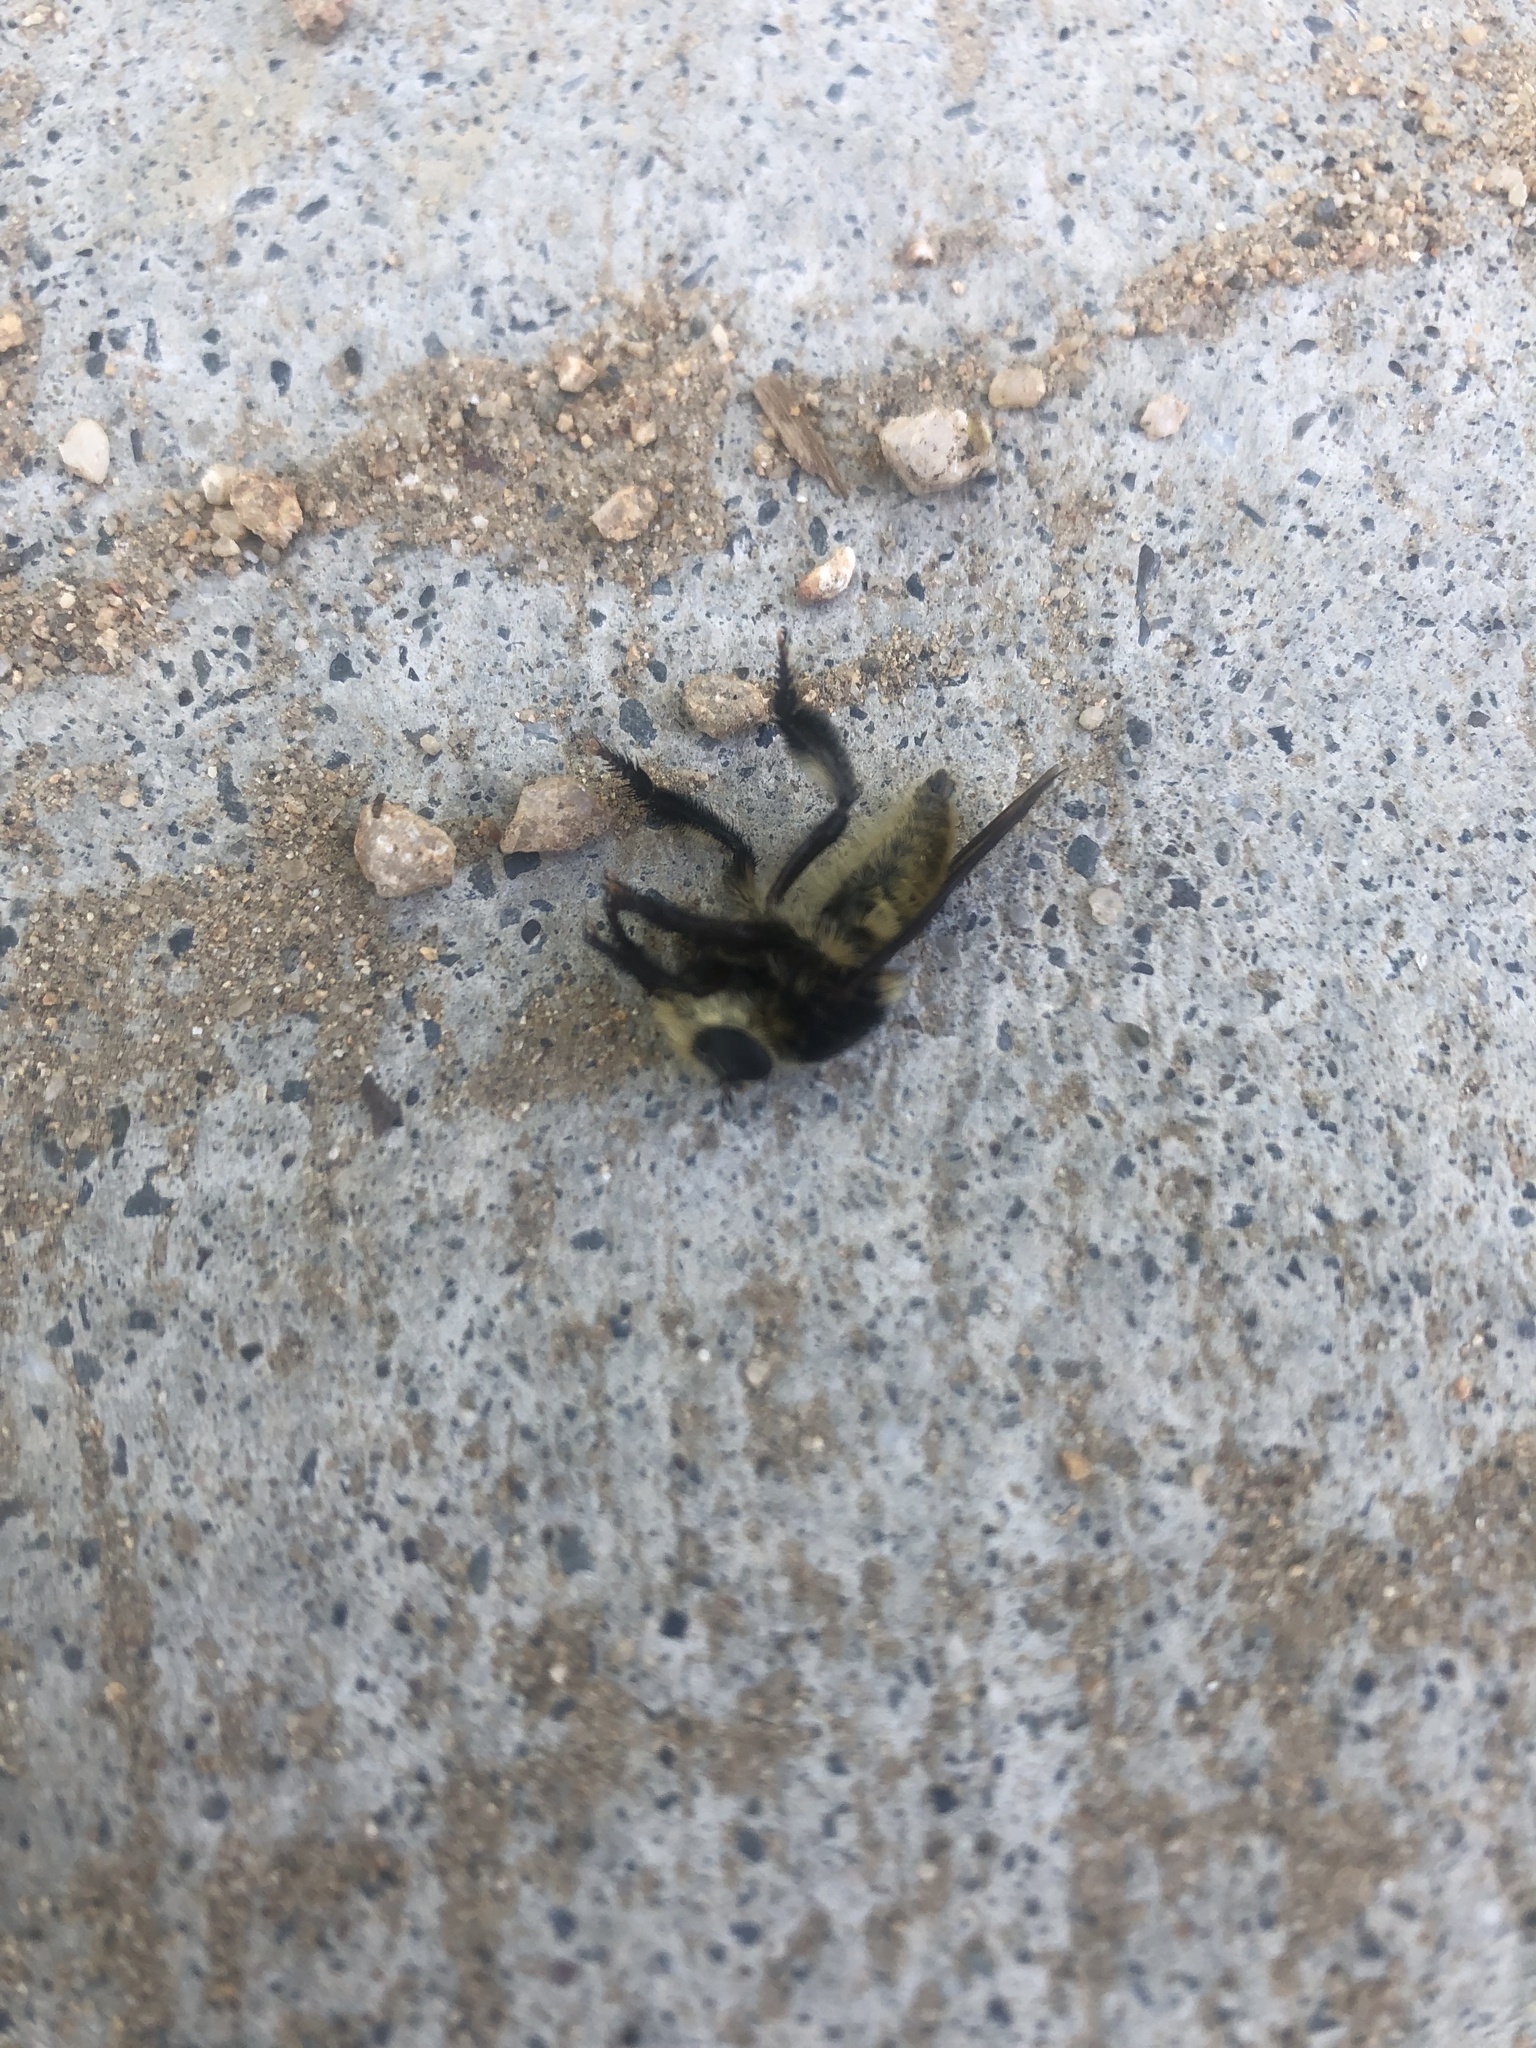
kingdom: Animalia
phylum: Arthropoda
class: Insecta
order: Diptera
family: Asilidae
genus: Mallophora
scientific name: Mallophora fautrix
